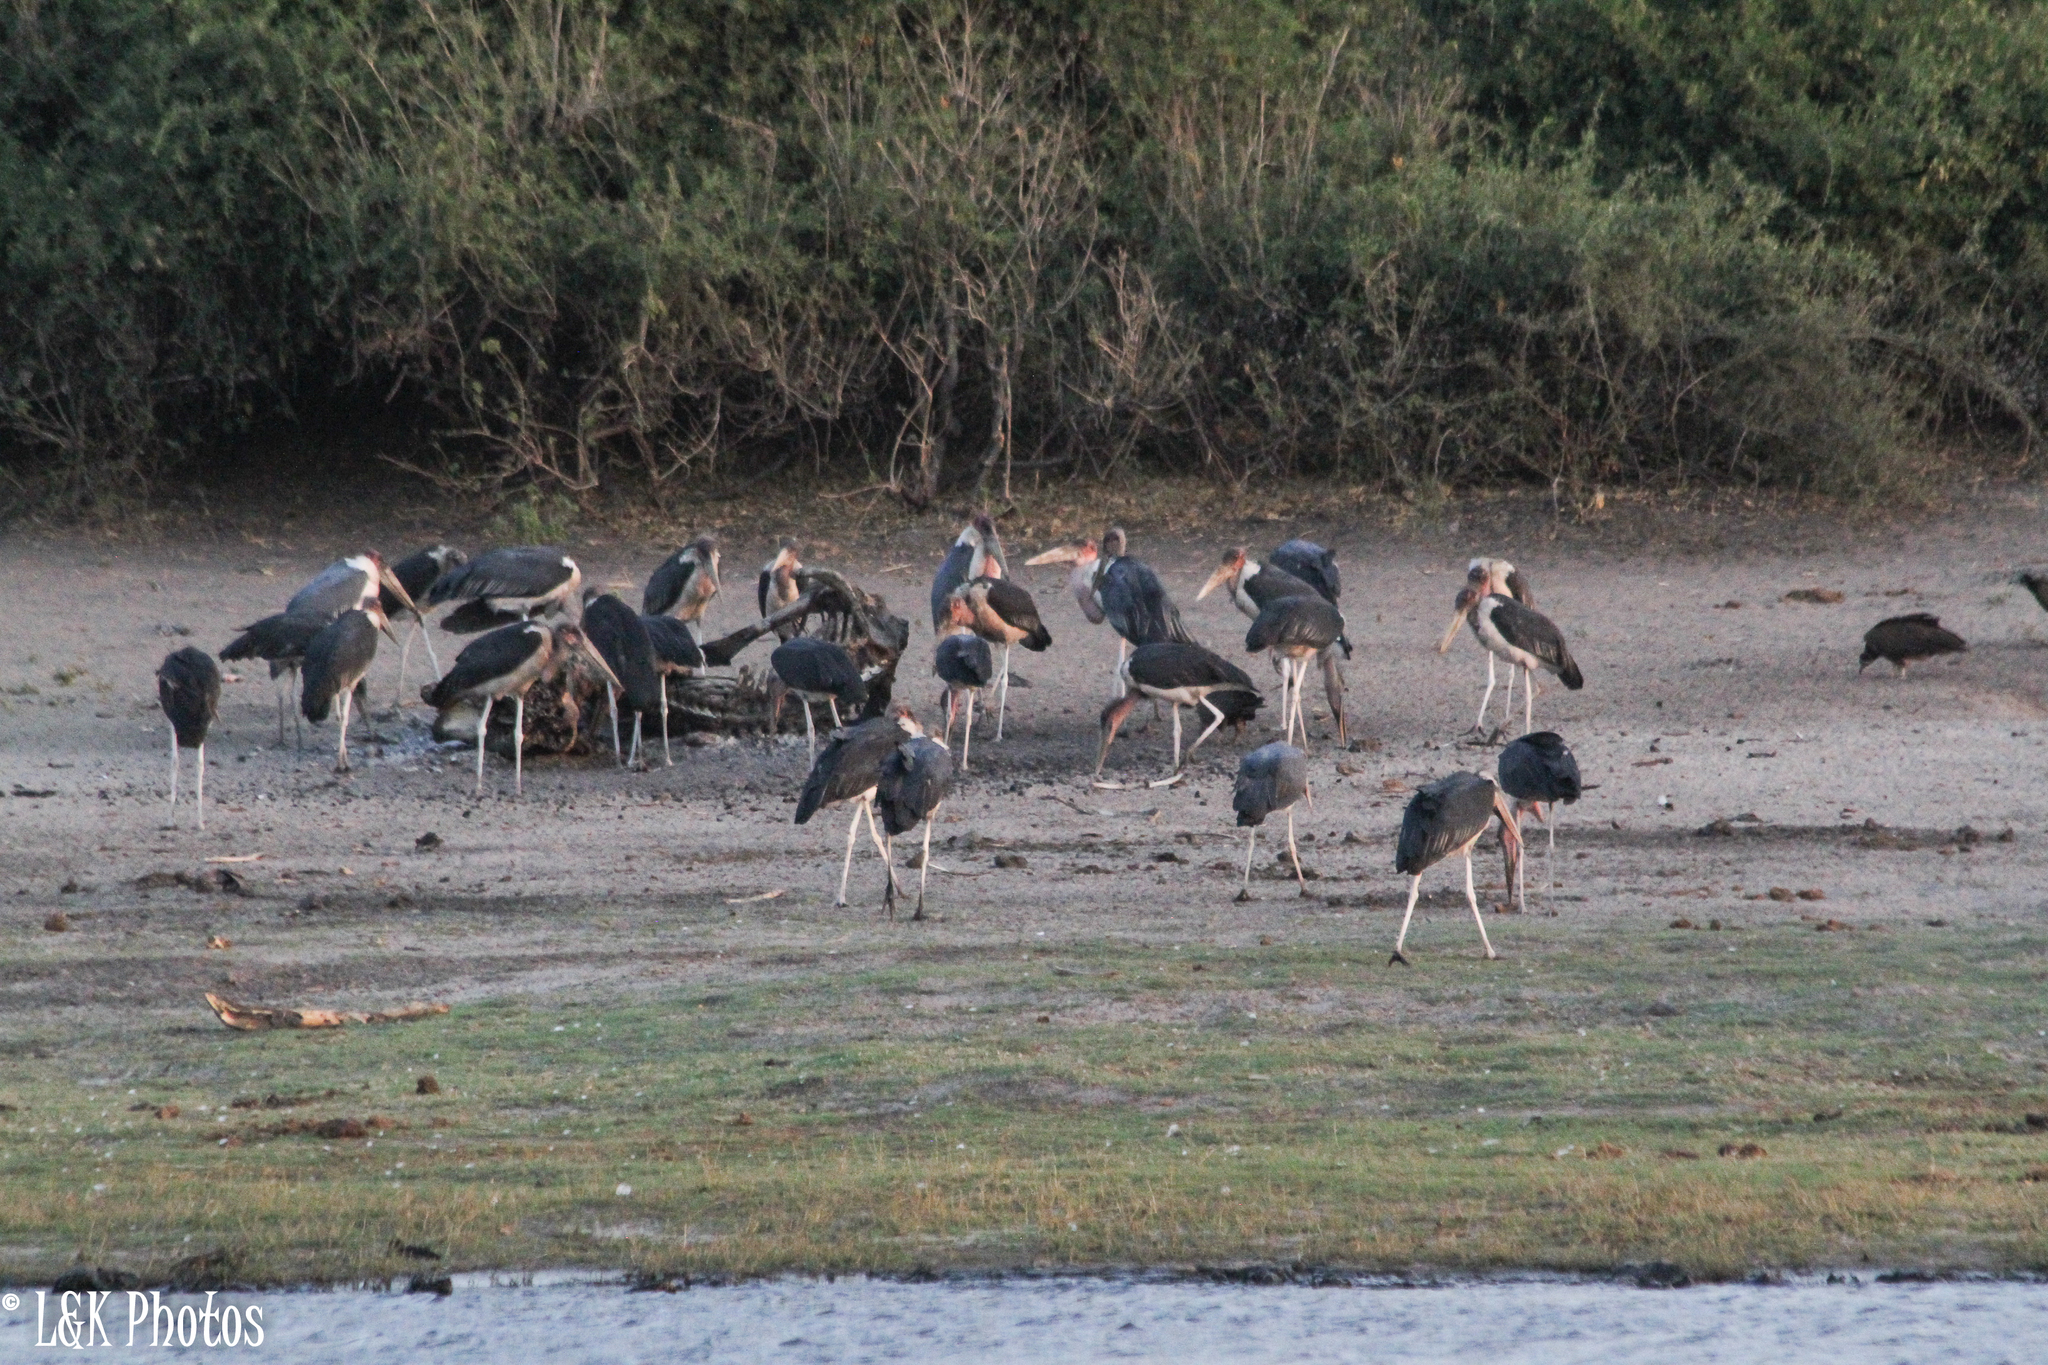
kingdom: Animalia
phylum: Chordata
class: Aves
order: Ciconiiformes
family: Ciconiidae
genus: Leptoptilos
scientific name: Leptoptilos crumenifer
